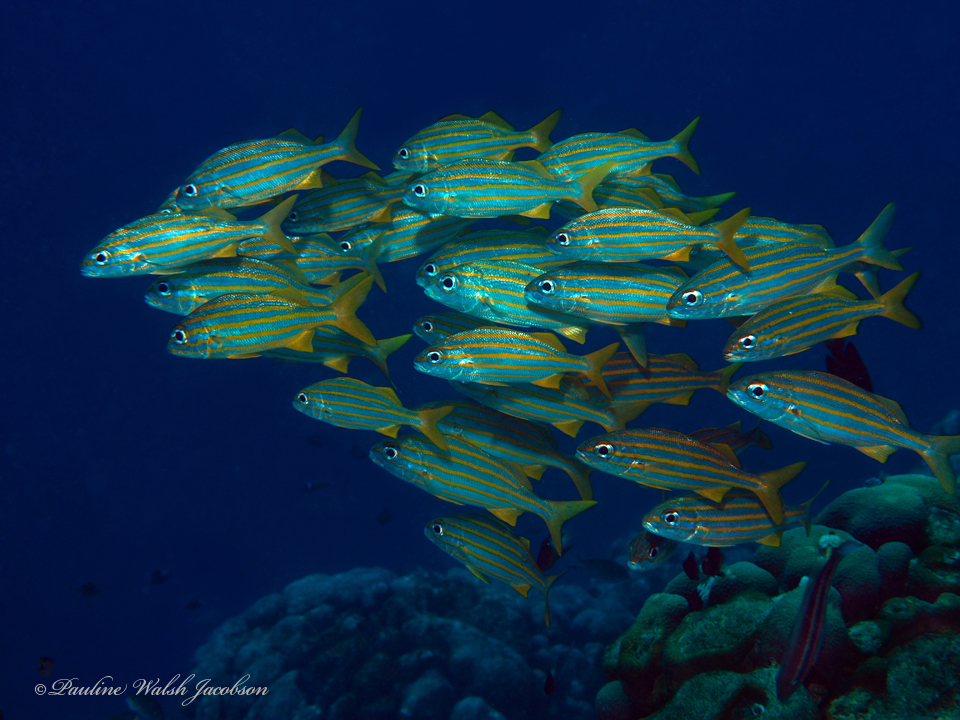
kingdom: Animalia
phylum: Chordata
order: Perciformes
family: Haemulidae
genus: Haemulon
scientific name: Haemulon chrysargyreum
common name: Smallmouth grunt
